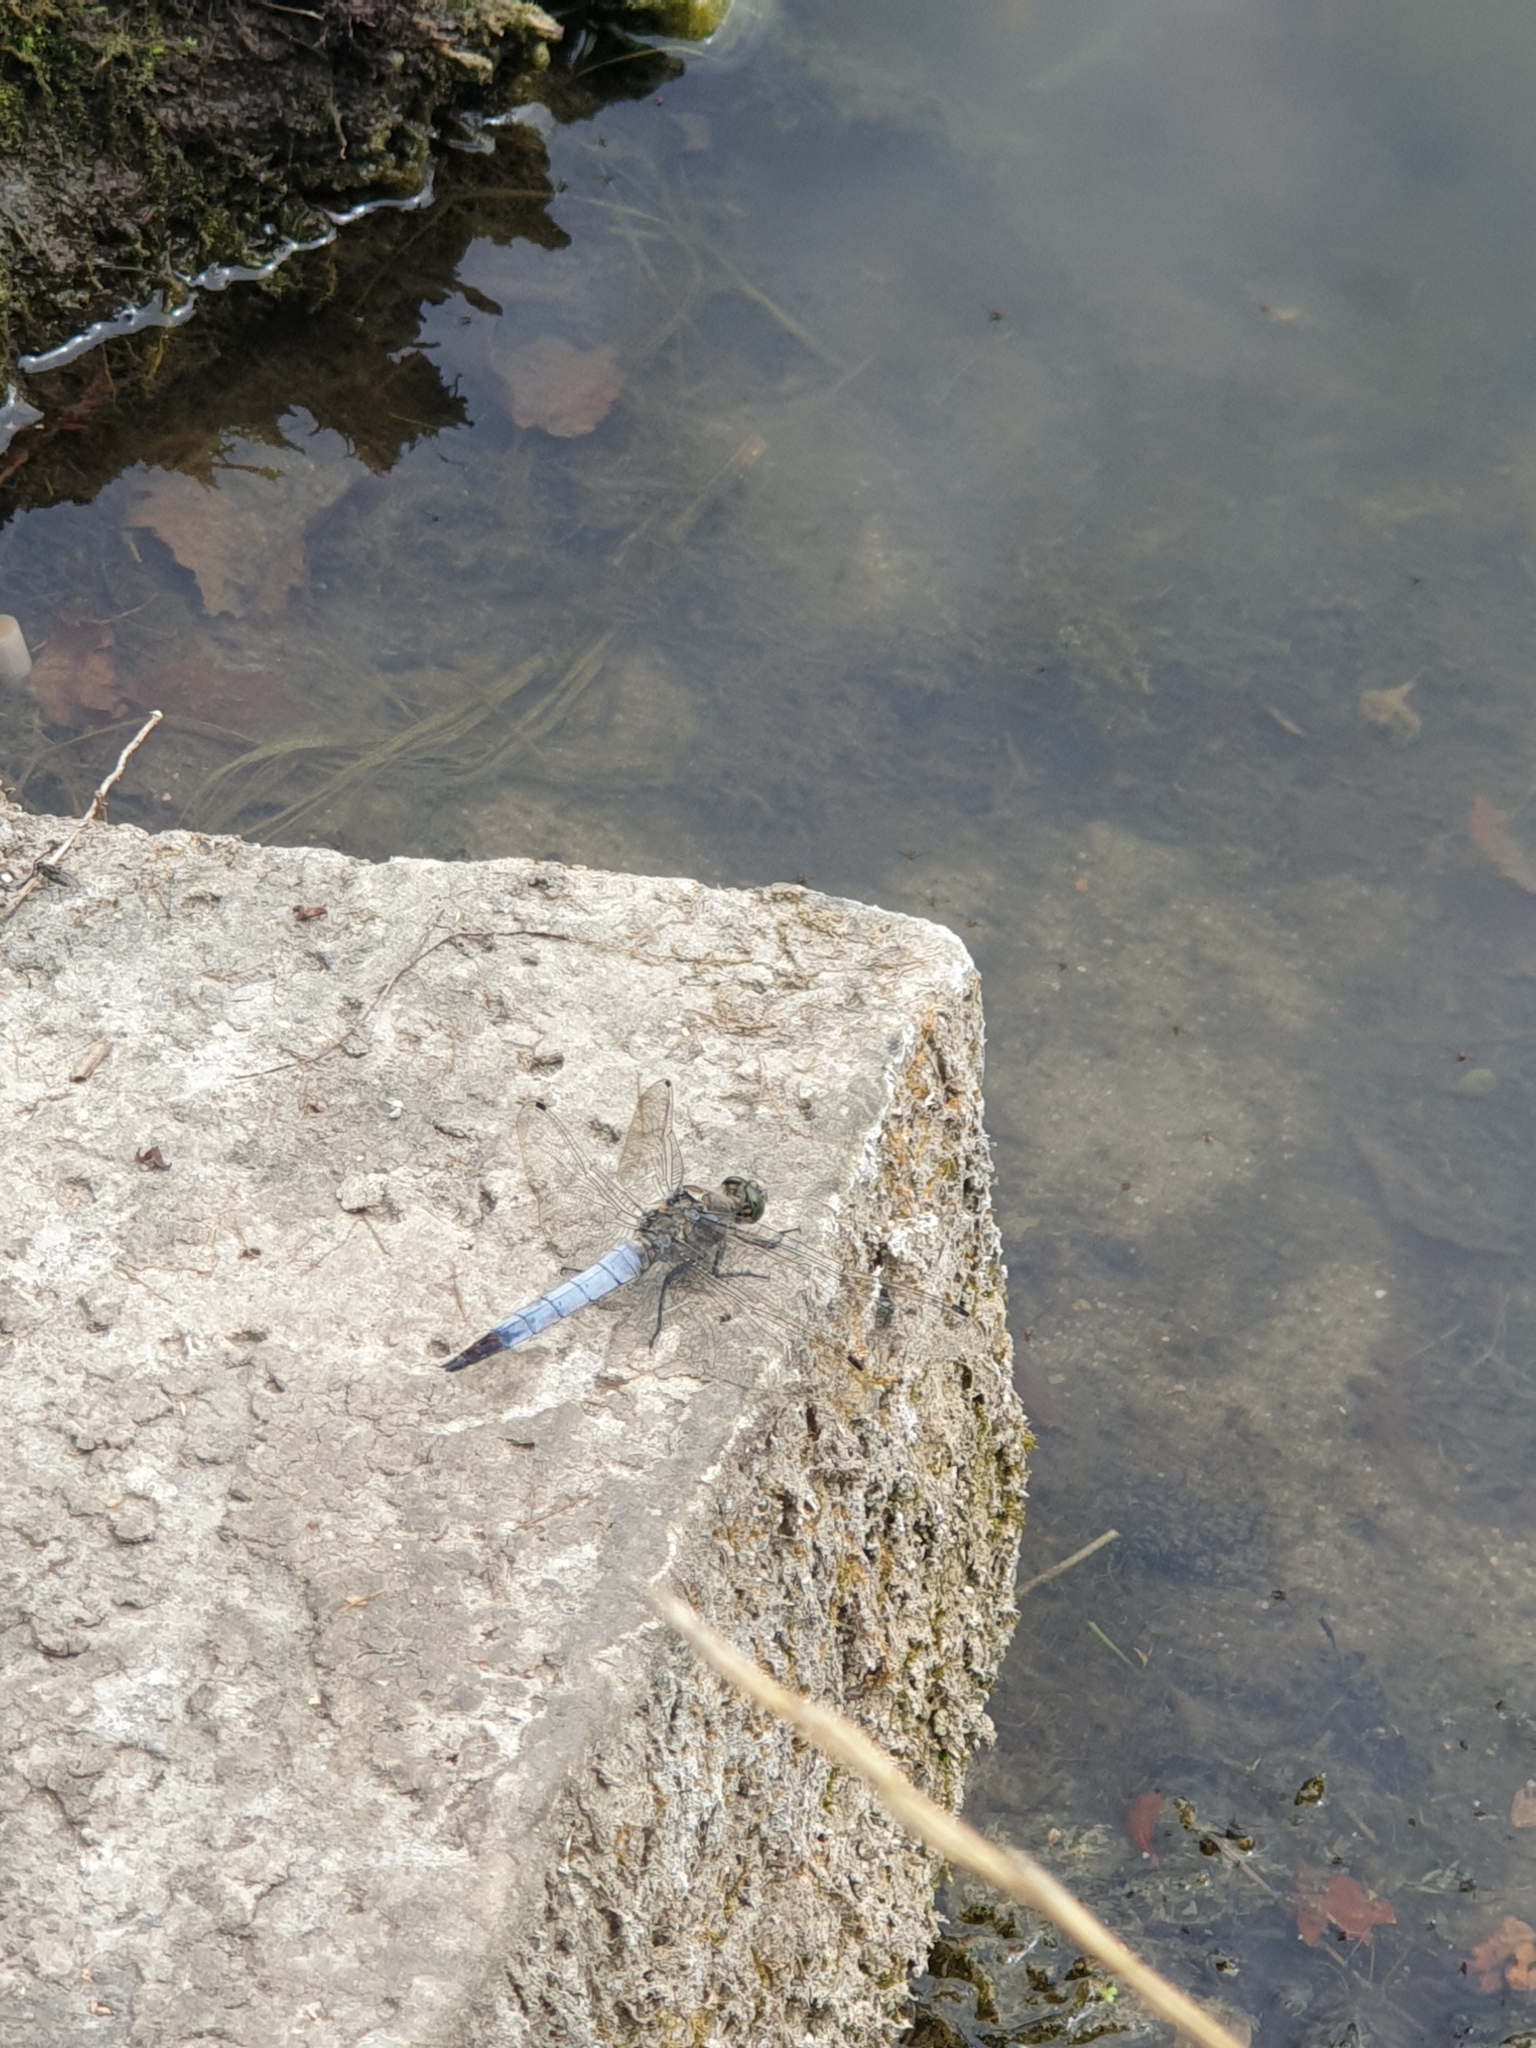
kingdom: Animalia
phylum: Arthropoda
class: Insecta
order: Odonata
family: Libellulidae
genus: Orthetrum
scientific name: Orthetrum cancellatum
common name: Black-tailed skimmer
